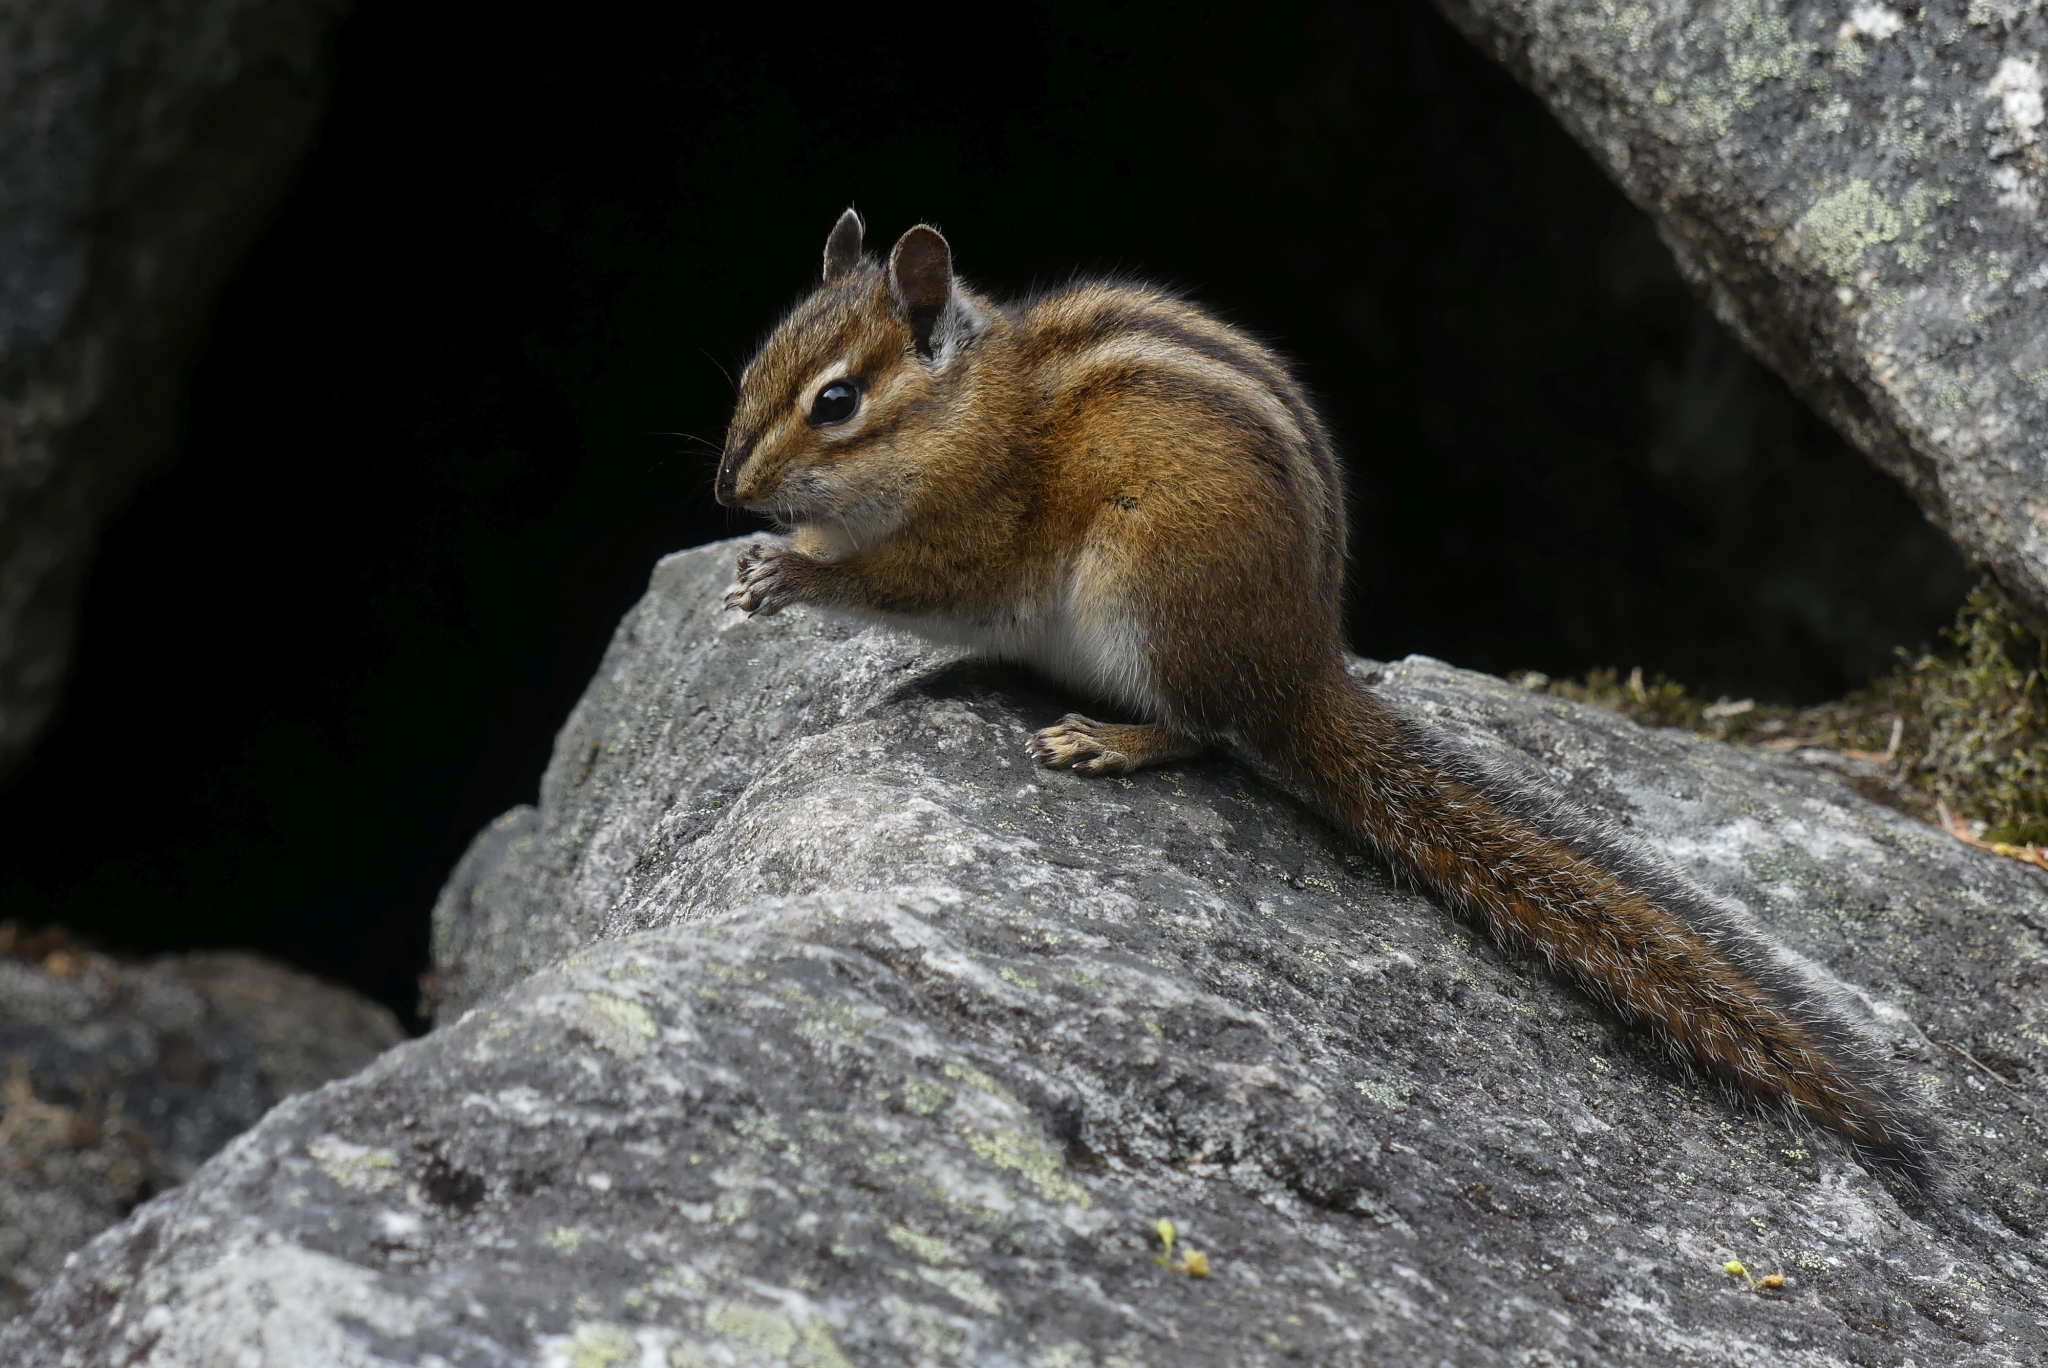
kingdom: Animalia
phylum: Chordata
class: Mammalia
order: Rodentia
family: Sciuridae
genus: Tamias
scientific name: Tamias townsendii
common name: Townsend's chipmunk
